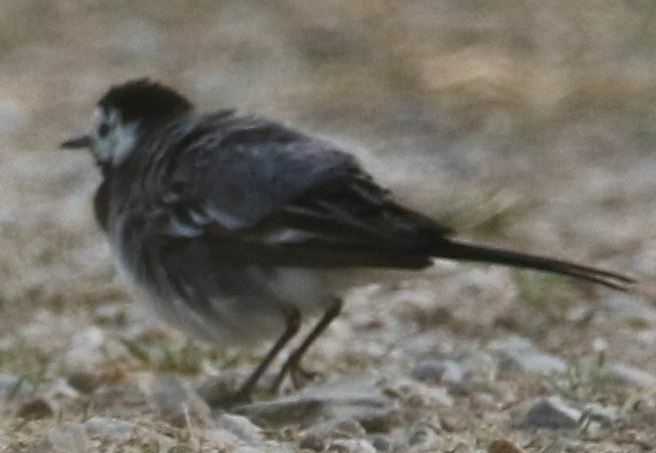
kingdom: Animalia
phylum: Chordata
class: Aves
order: Passeriformes
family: Motacillidae
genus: Motacilla
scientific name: Motacilla alba
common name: White wagtail
